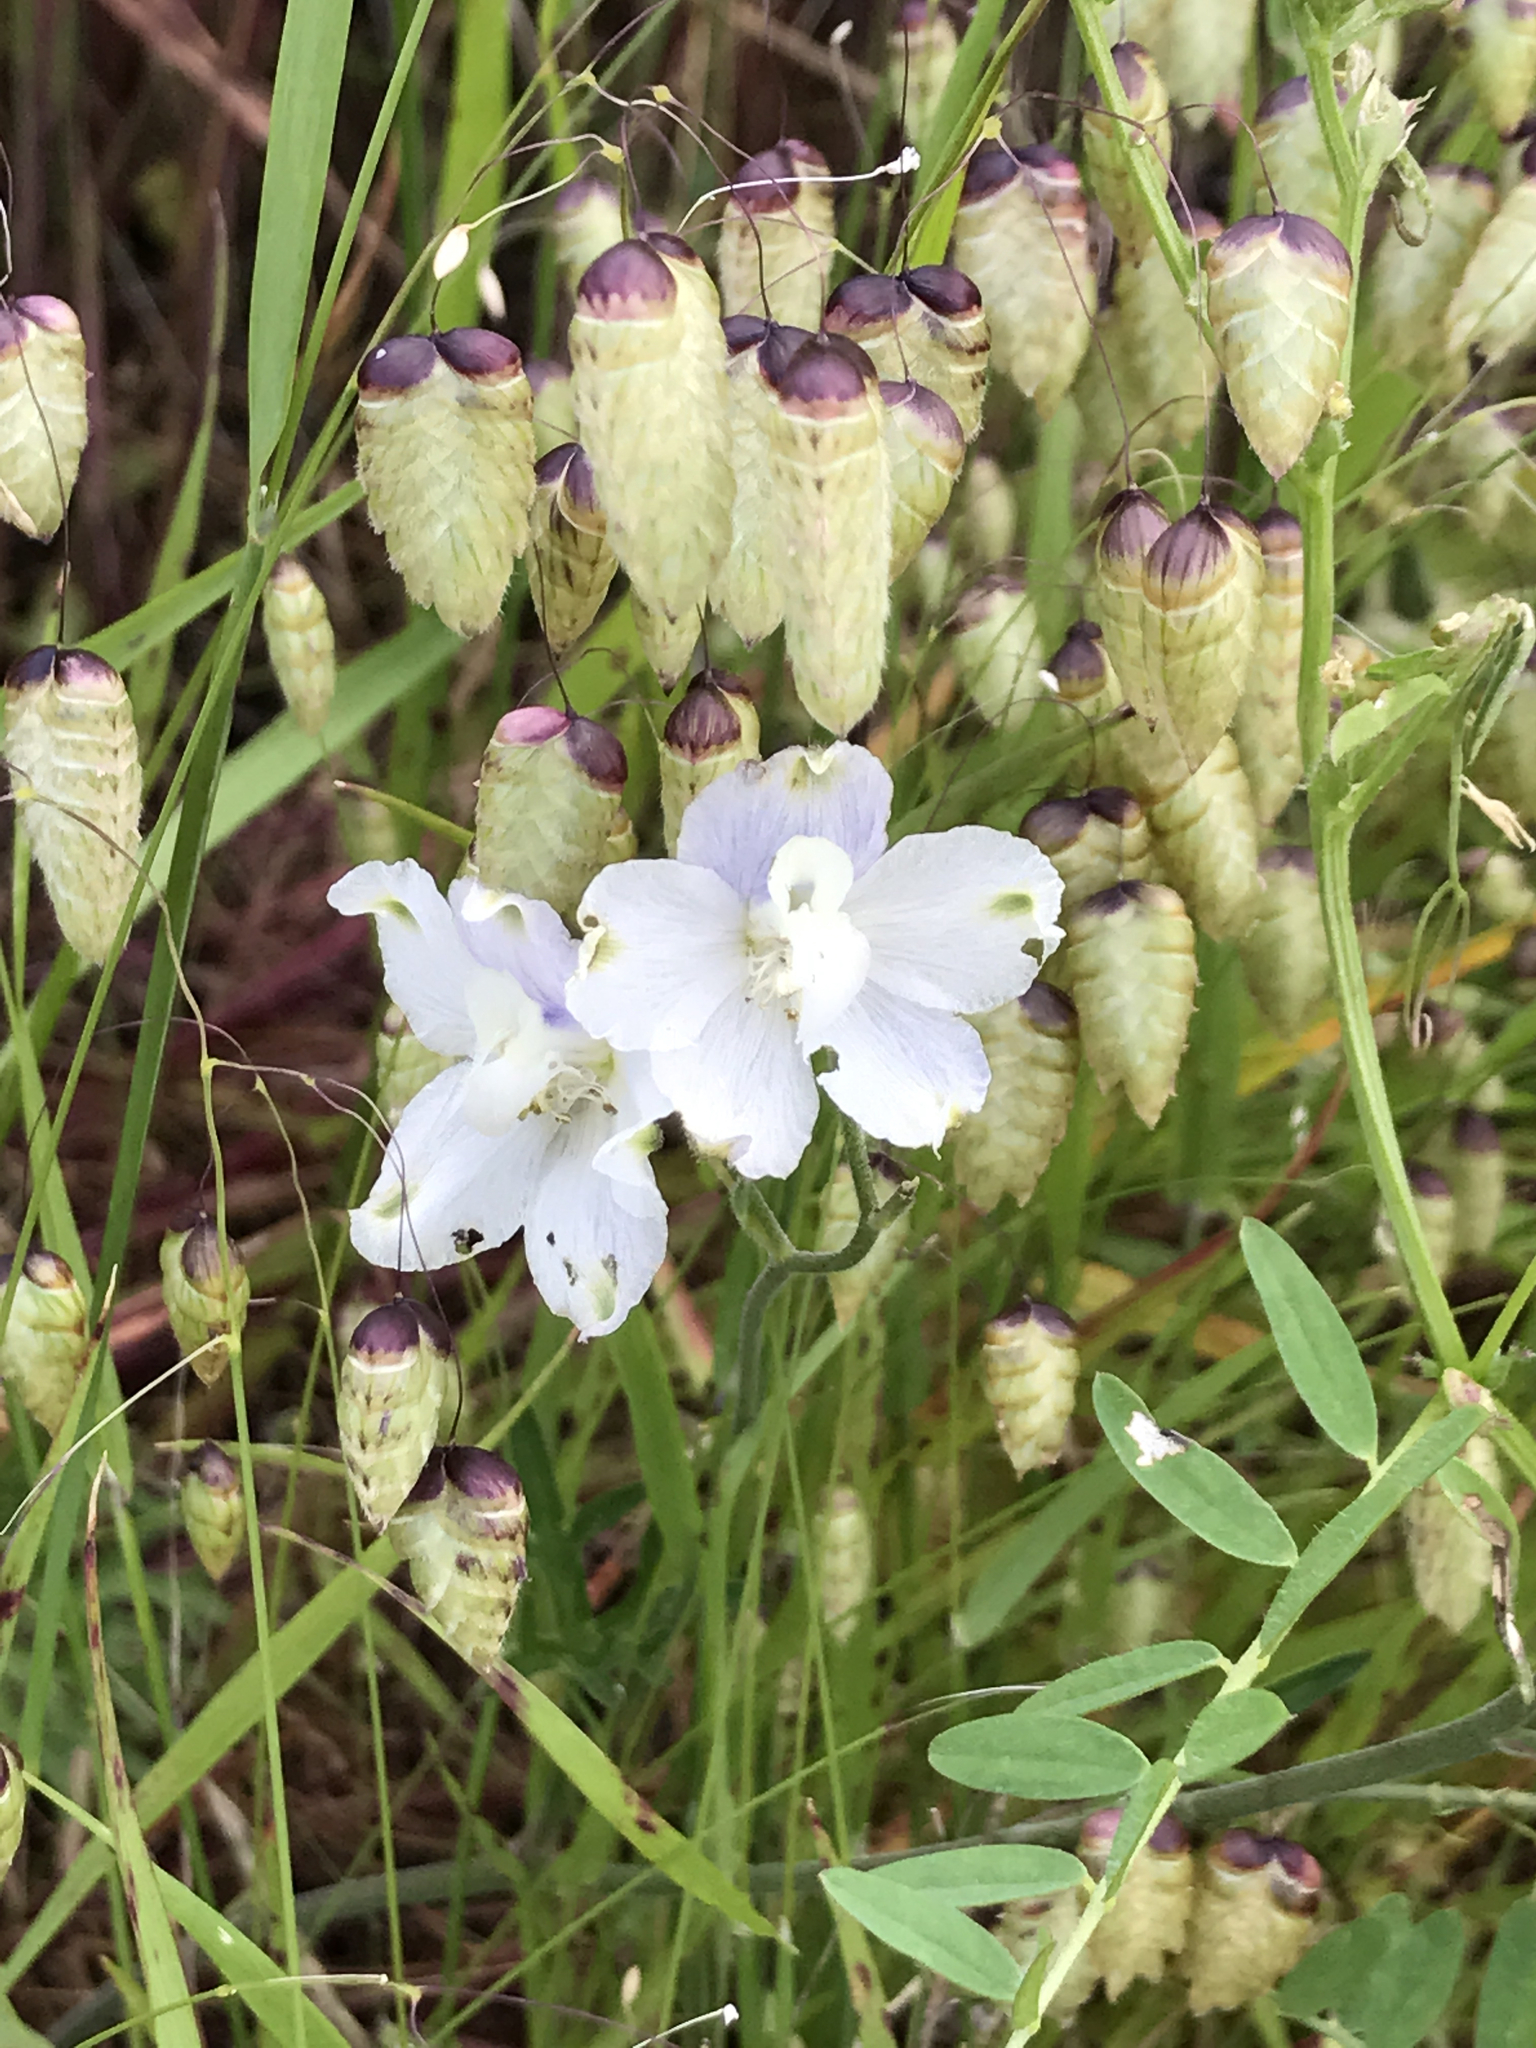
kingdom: Plantae
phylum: Tracheophyta
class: Magnoliopsida
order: Ranunculales
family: Ranunculaceae
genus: Delphinium
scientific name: Delphinium variegatum
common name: Royal larkspur
